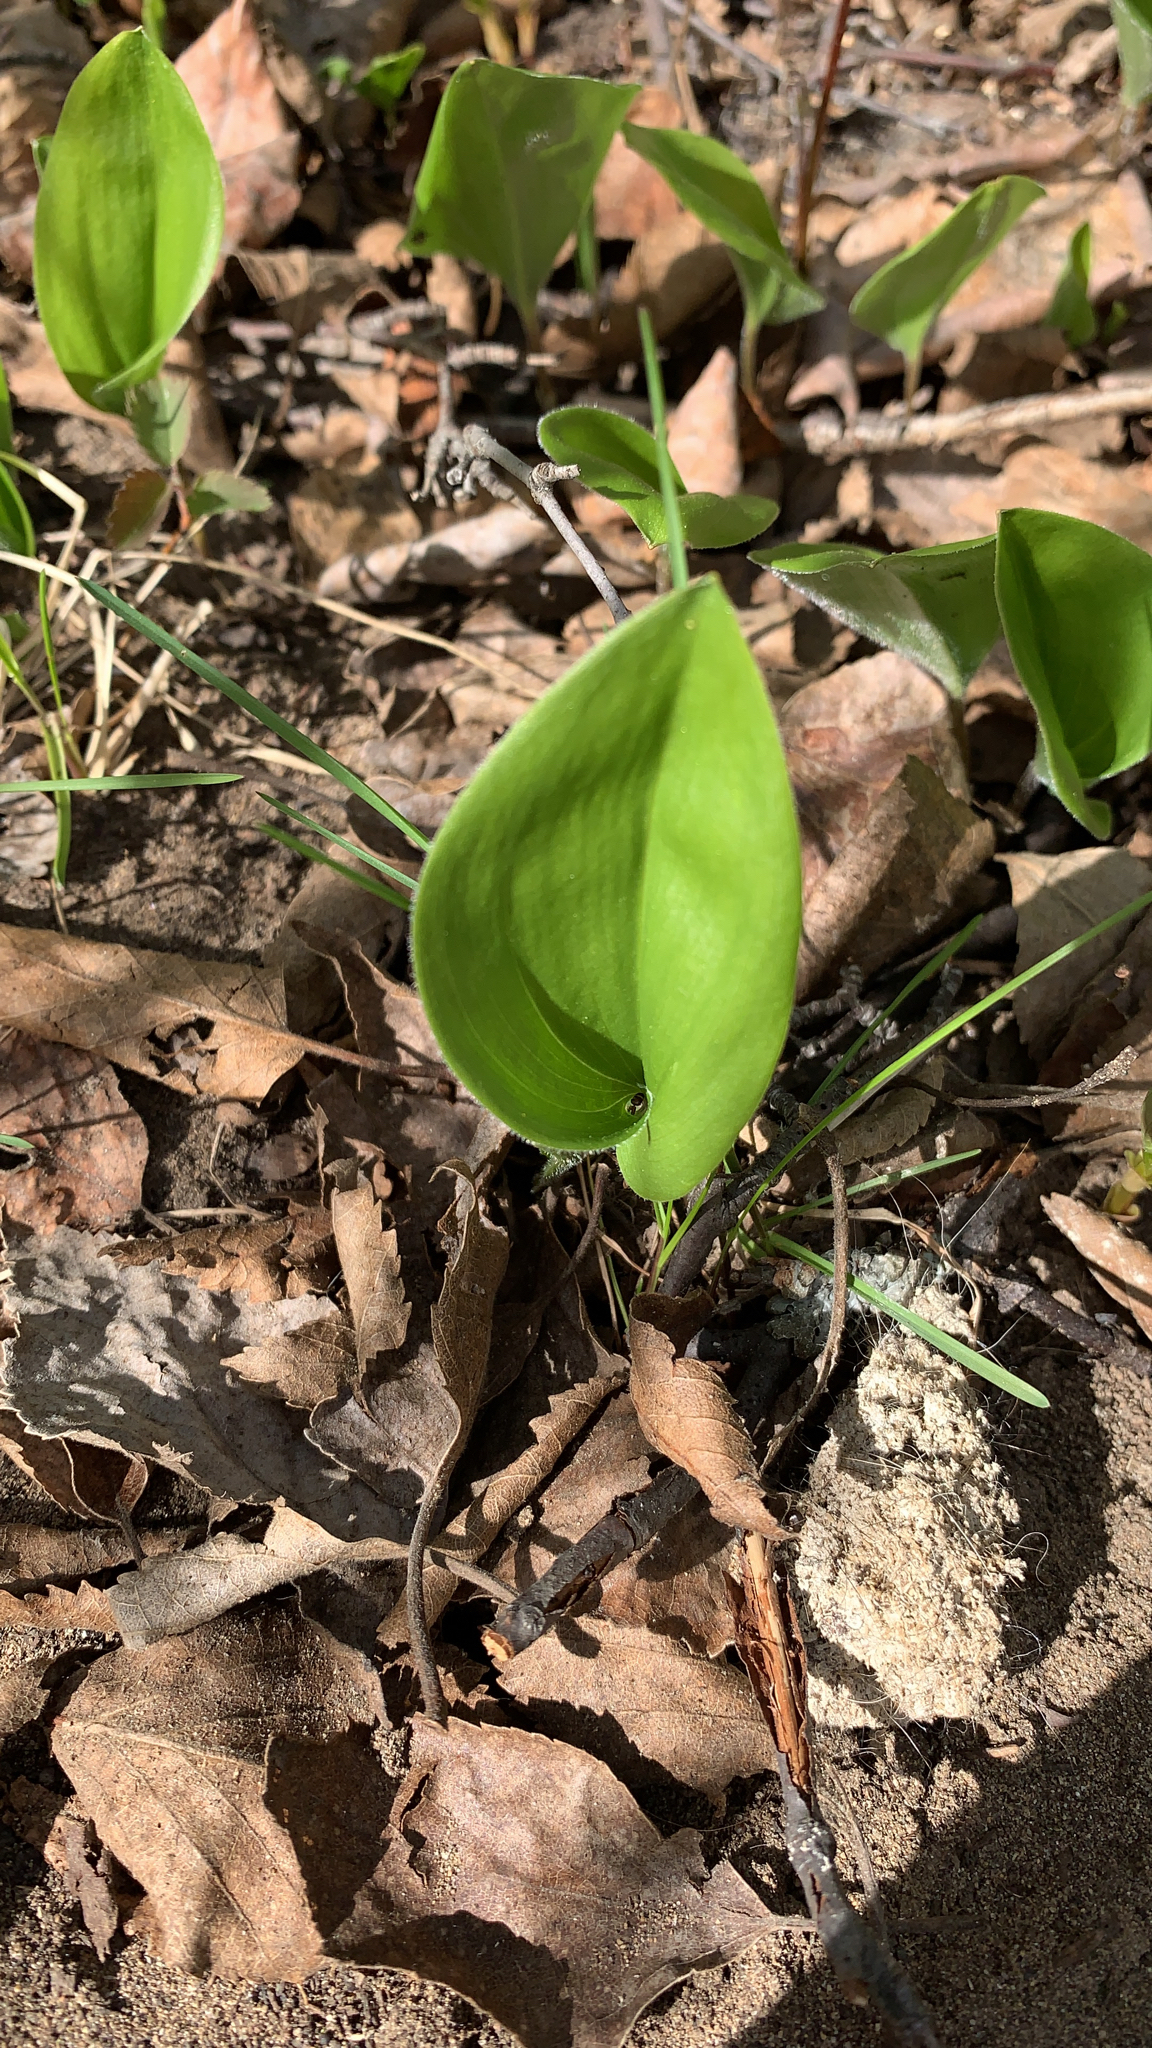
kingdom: Plantae
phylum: Tracheophyta
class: Liliopsida
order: Asparagales
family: Asparagaceae
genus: Maianthemum
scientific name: Maianthemum canadense
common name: False lily-of-the-valley
